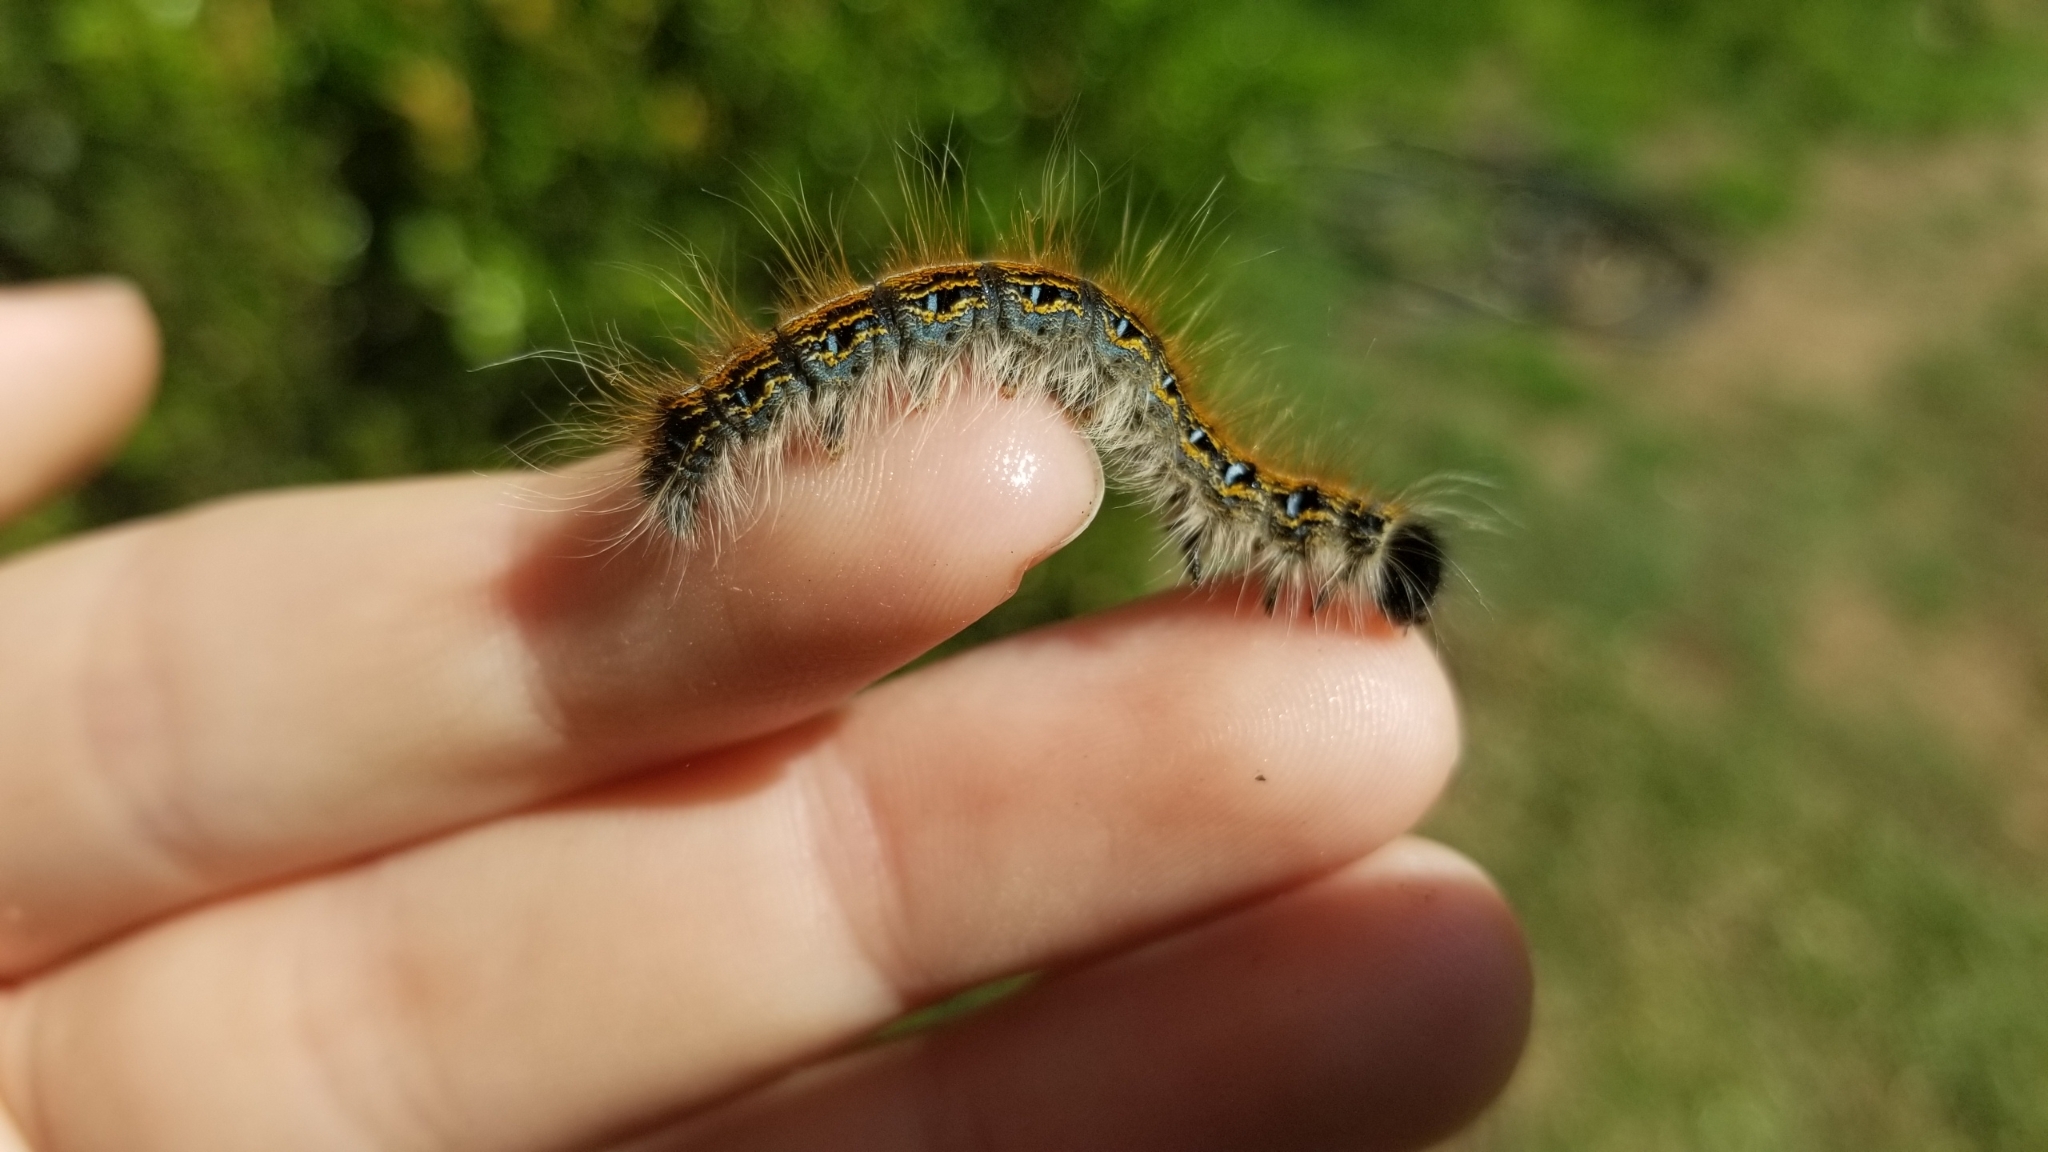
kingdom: Animalia
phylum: Arthropoda
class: Insecta
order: Lepidoptera
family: Lasiocampidae
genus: Malacosoma
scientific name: Malacosoma americana
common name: Eastern tent caterpillar moth
